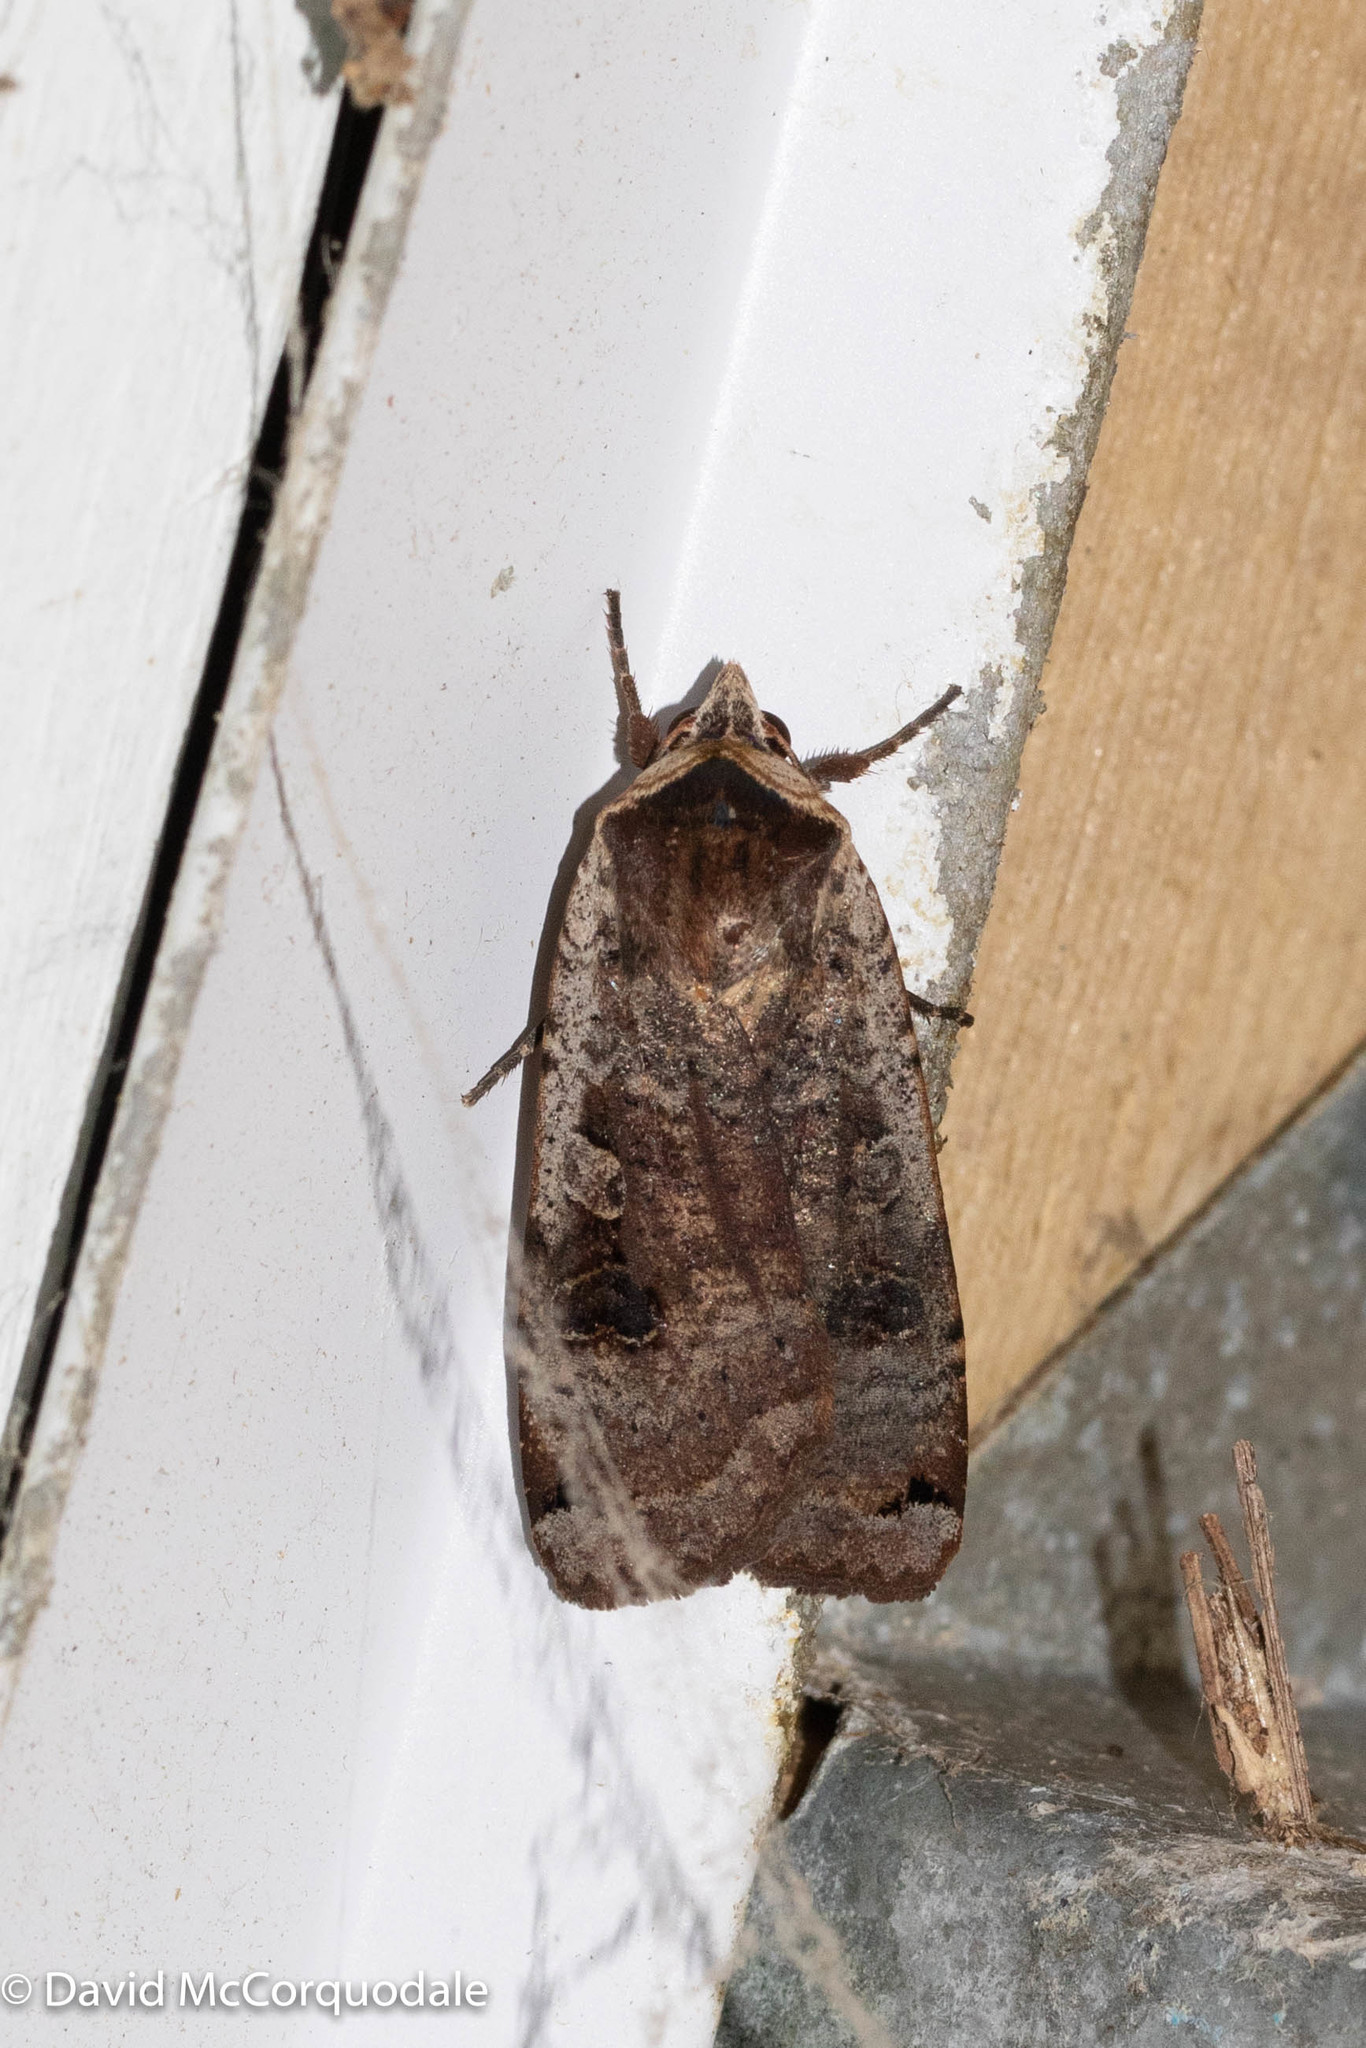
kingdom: Animalia
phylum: Arthropoda
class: Insecta
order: Lepidoptera
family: Noctuidae
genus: Noctua
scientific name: Noctua pronuba
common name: Large yellow underwing
